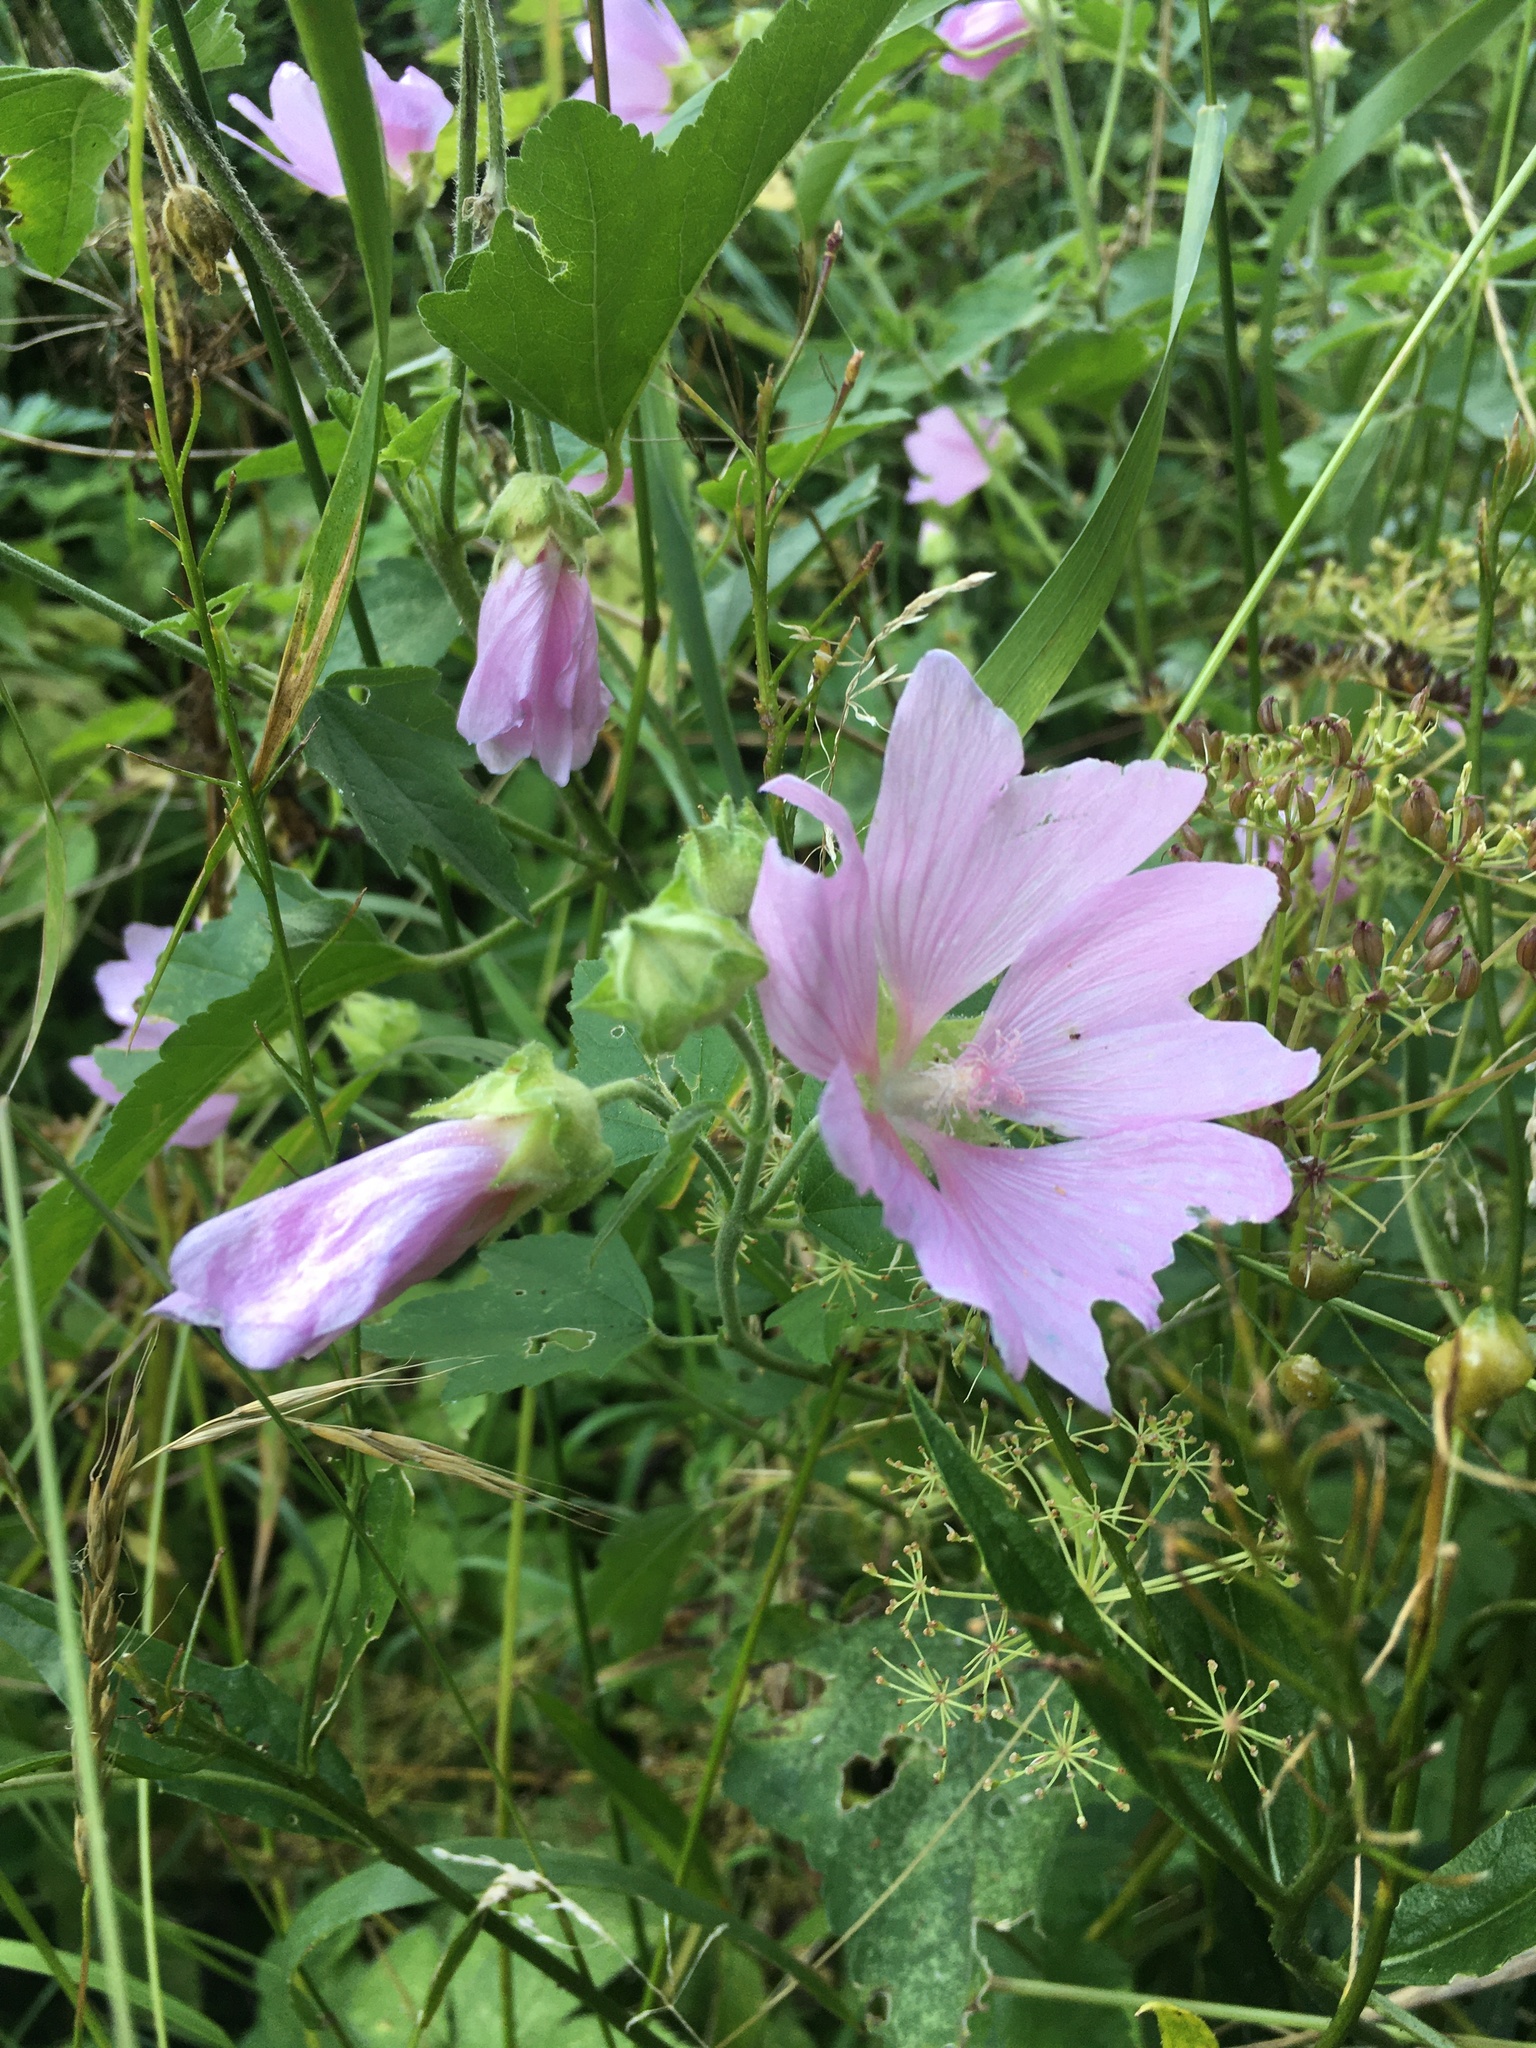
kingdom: Plantae
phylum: Tracheophyta
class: Magnoliopsida
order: Malvales
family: Malvaceae
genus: Malva
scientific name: Malva thuringiaca
